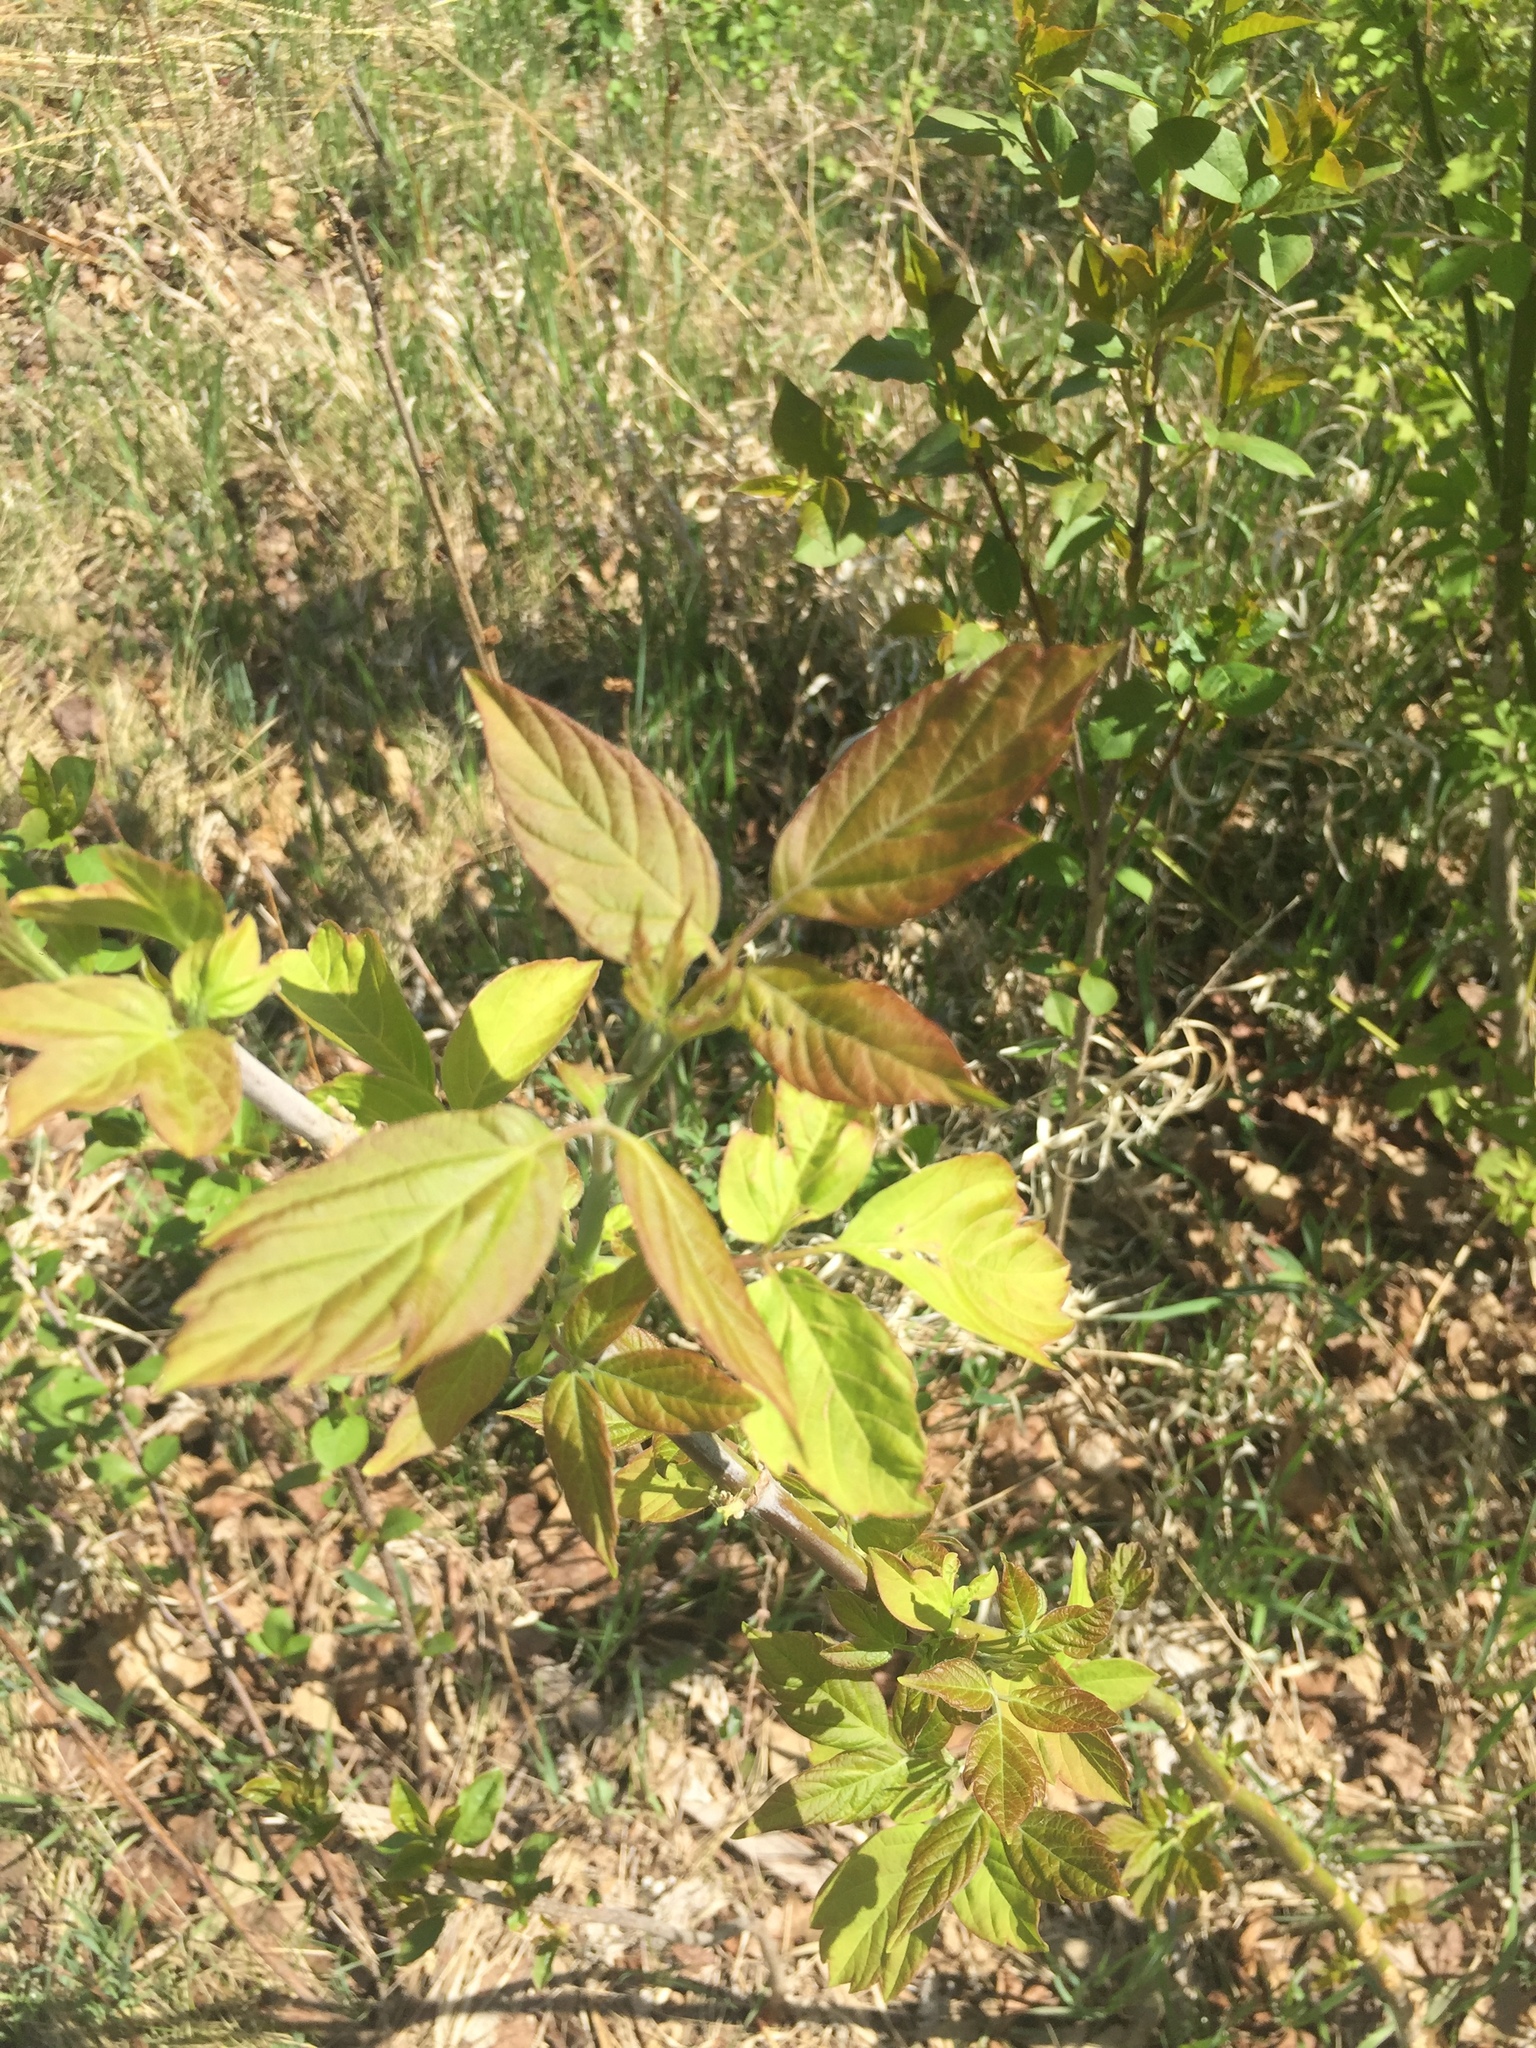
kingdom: Plantae
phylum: Tracheophyta
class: Magnoliopsida
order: Sapindales
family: Sapindaceae
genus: Acer
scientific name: Acer negundo
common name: Ashleaf maple
